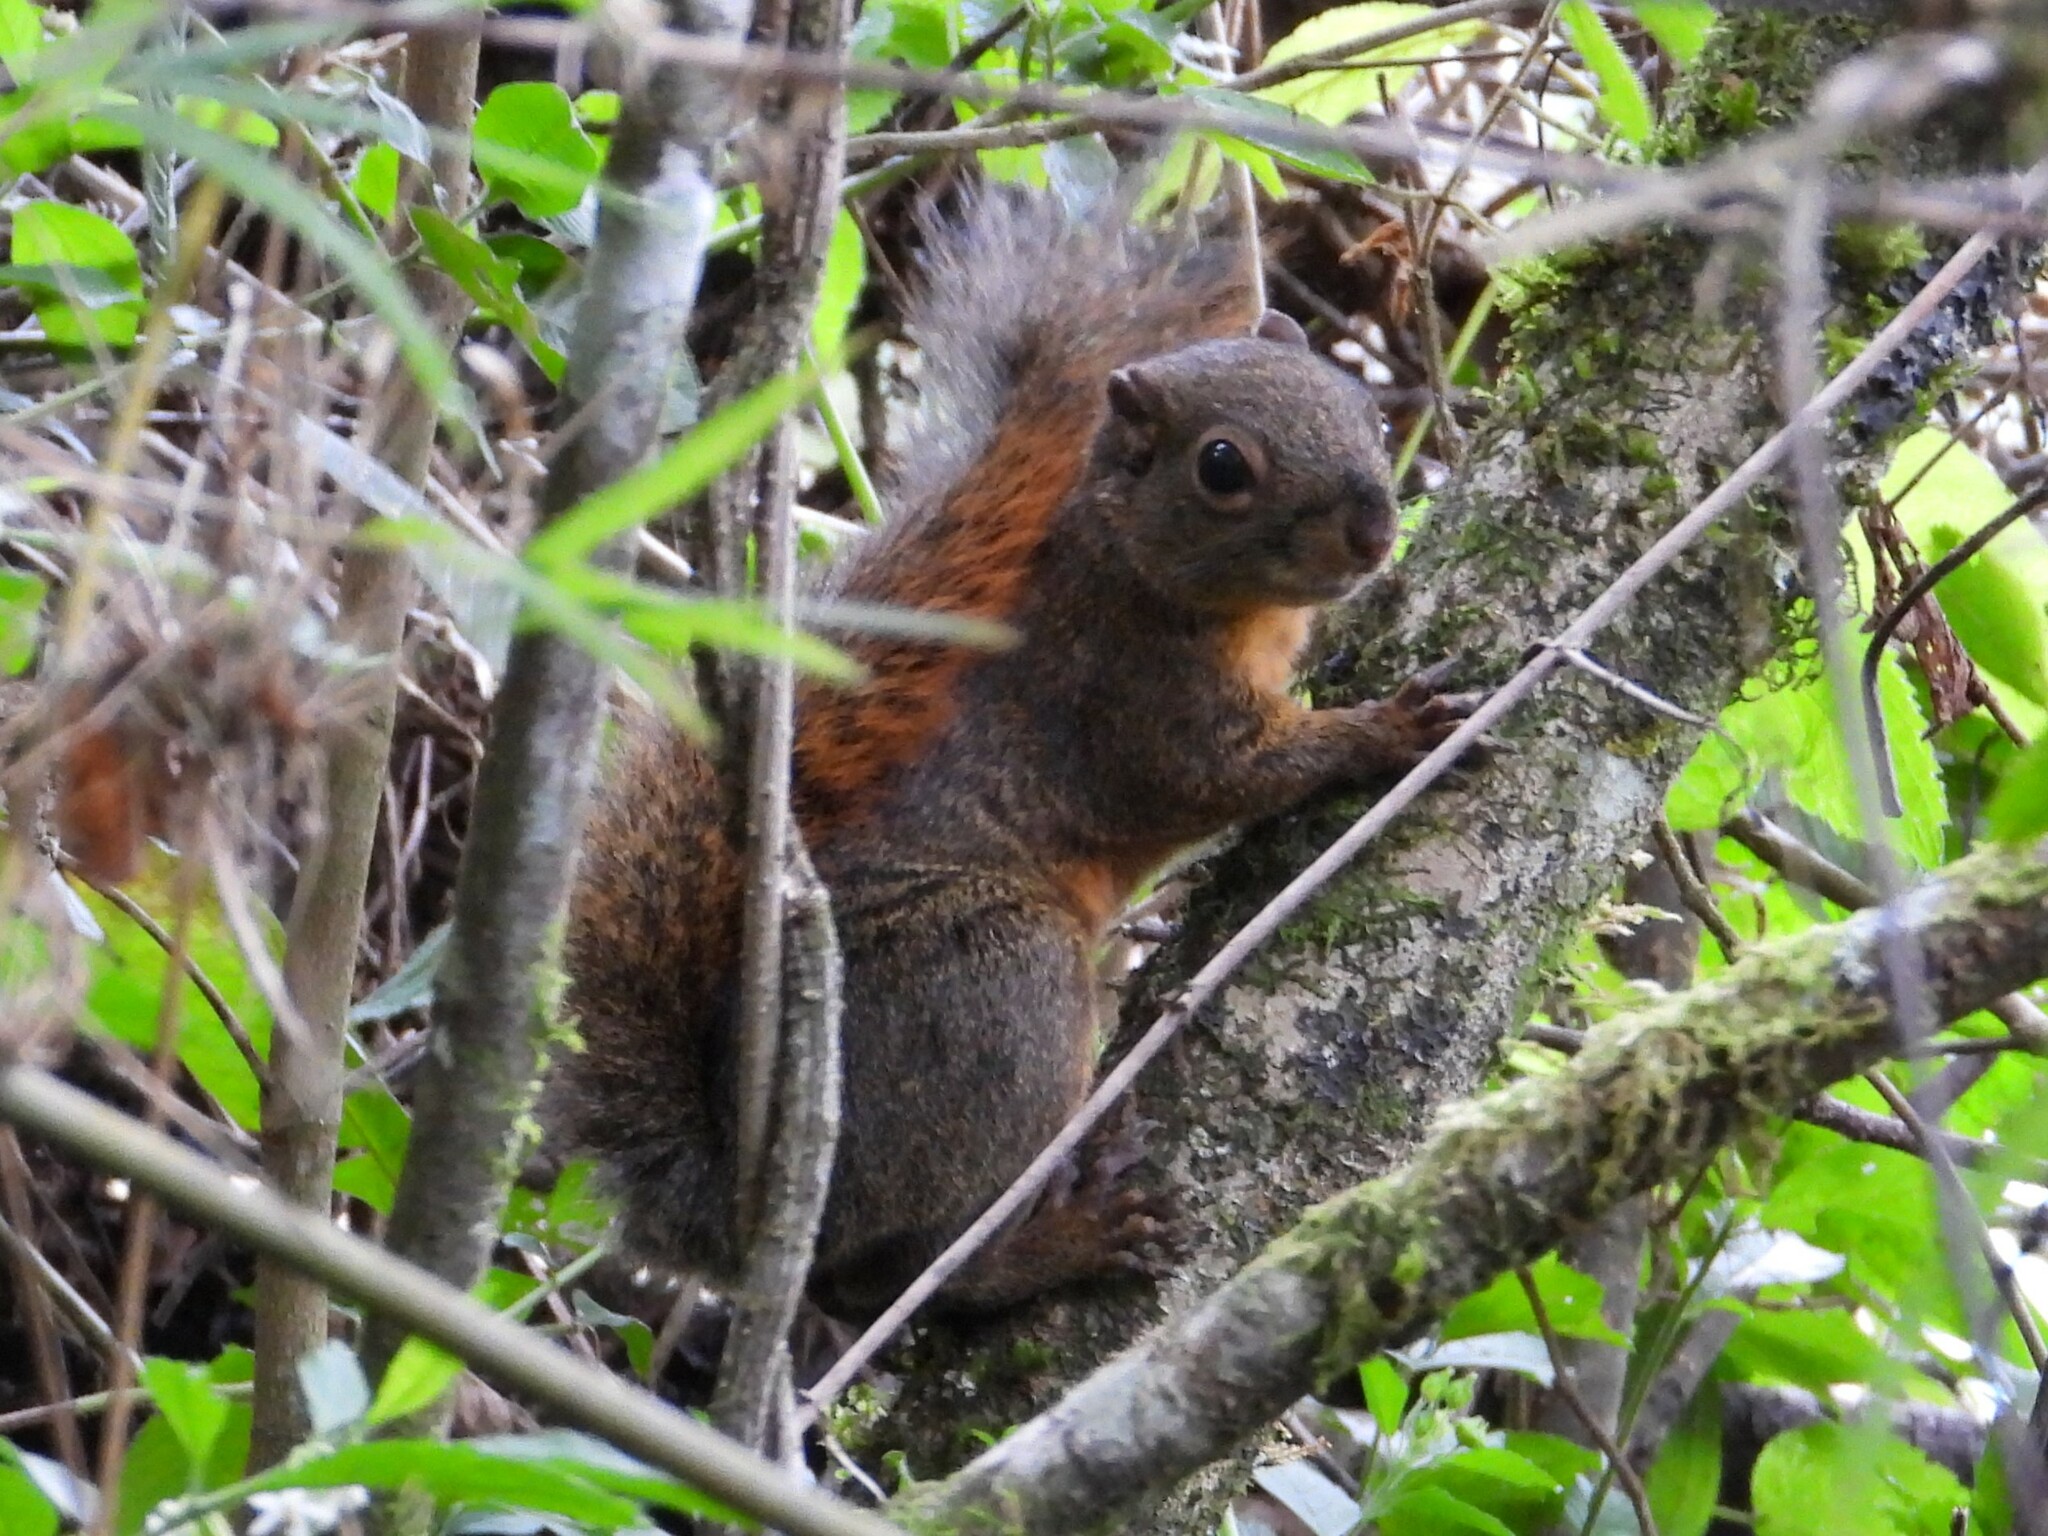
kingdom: Animalia
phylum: Chordata
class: Mammalia
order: Rodentia
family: Sciuridae
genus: Sciurus
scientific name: Sciurus granatensis
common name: Red-tailed squirrel
